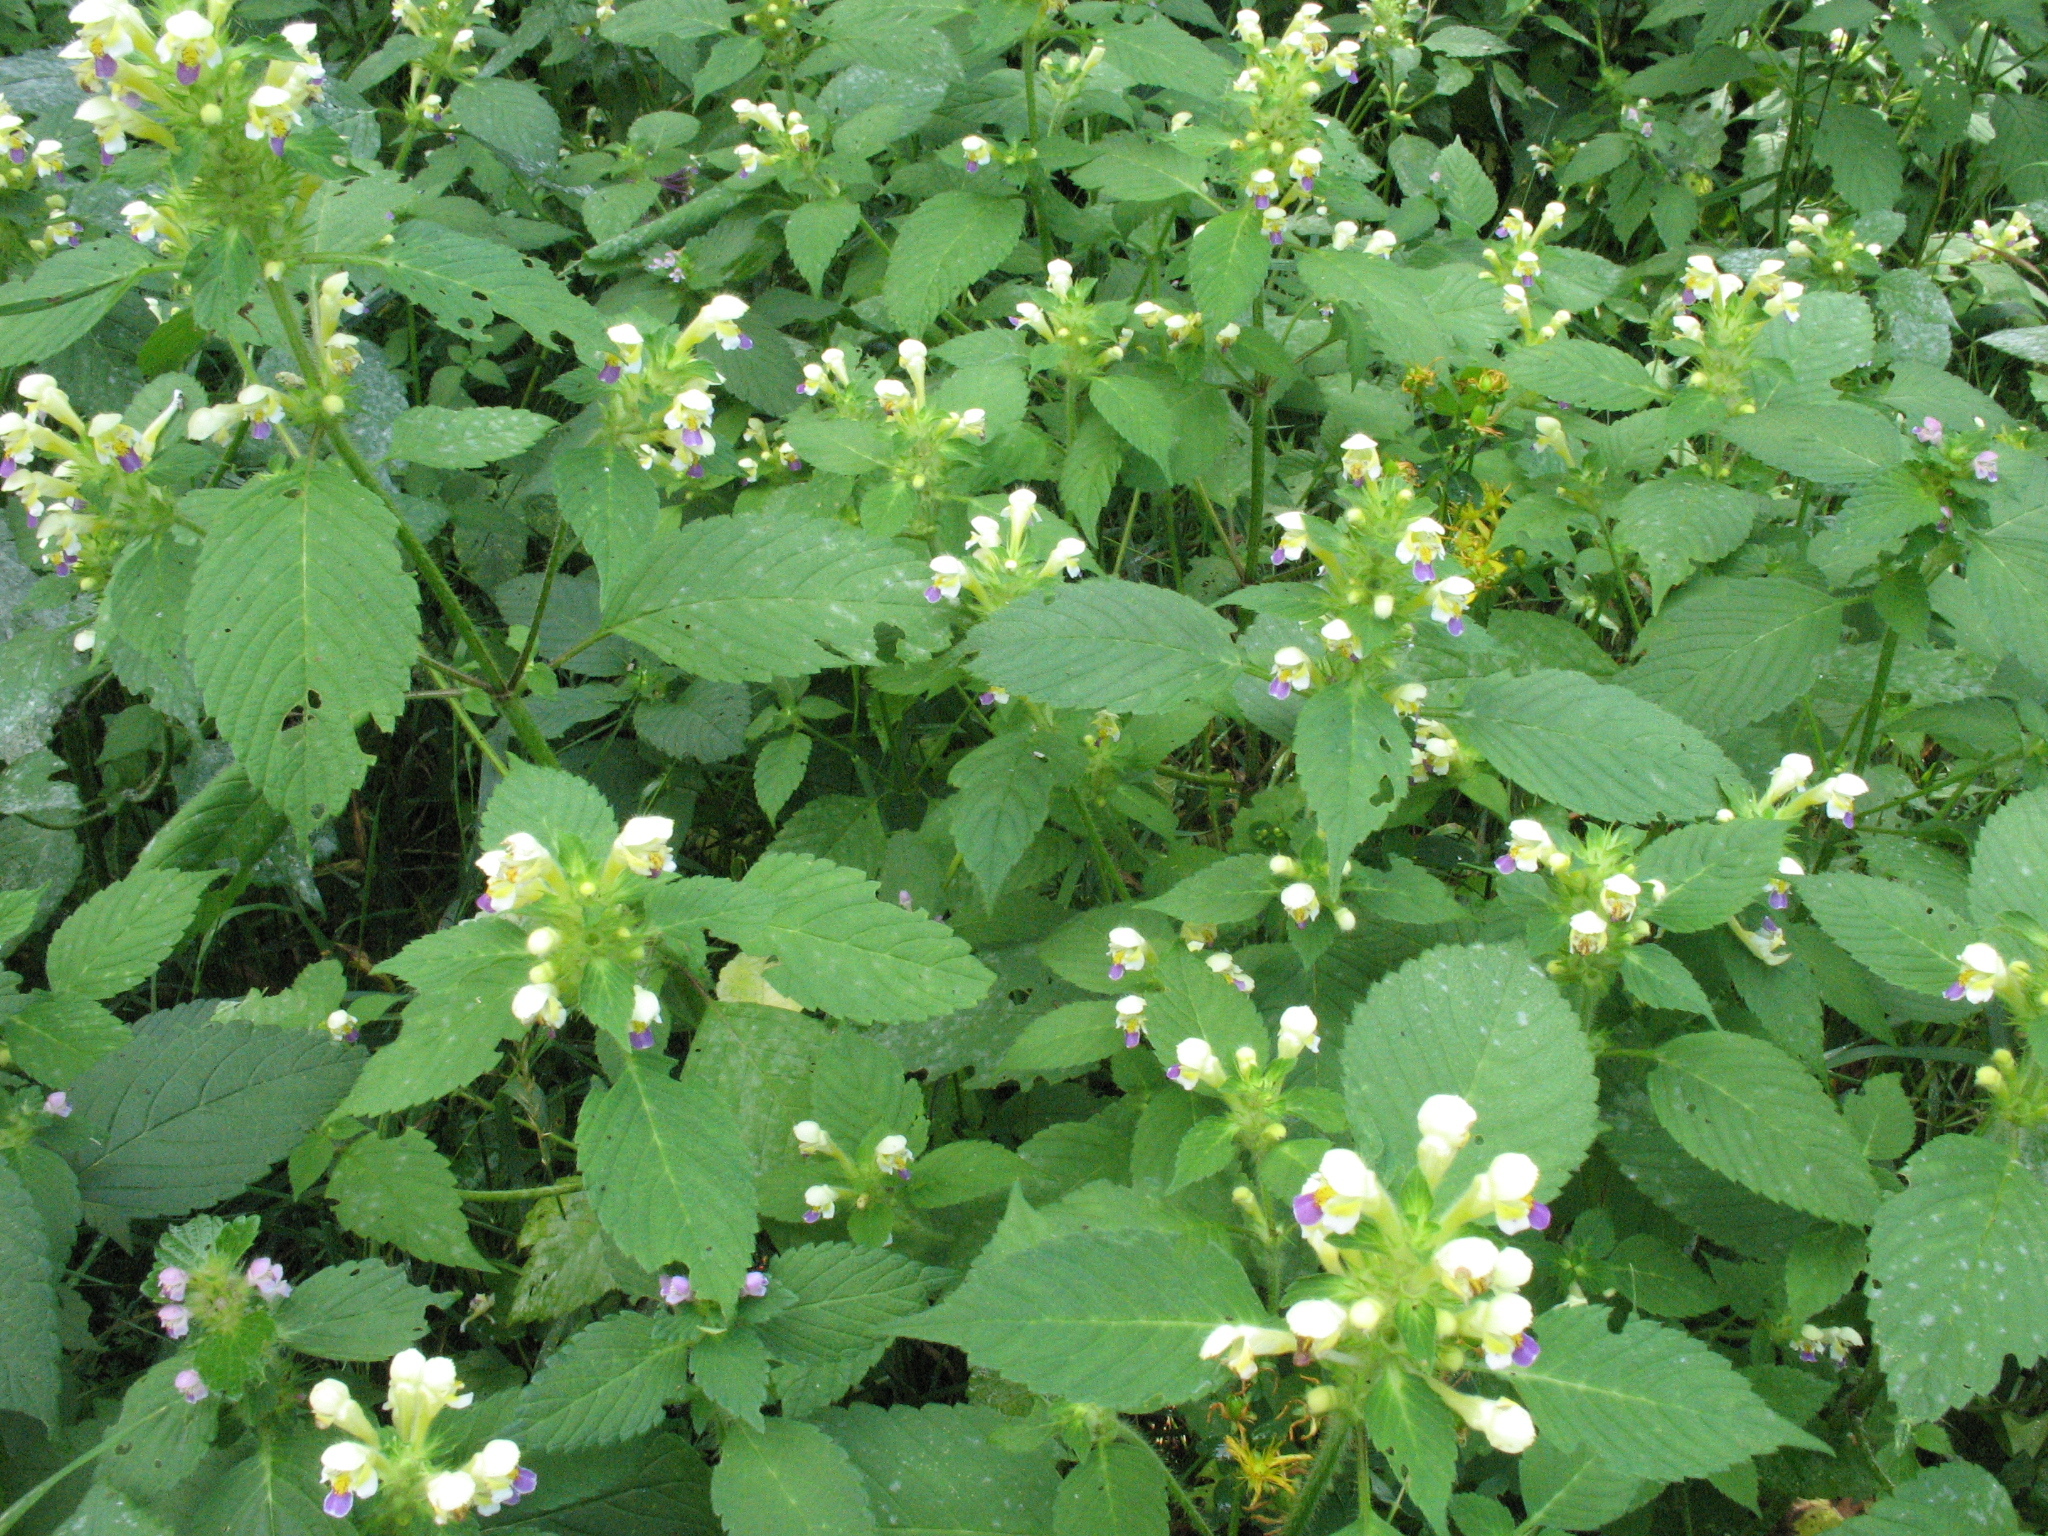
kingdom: Plantae
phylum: Tracheophyta
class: Magnoliopsida
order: Lamiales
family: Lamiaceae
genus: Galeopsis
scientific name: Galeopsis speciosa
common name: Large-flowered hemp-nettle
